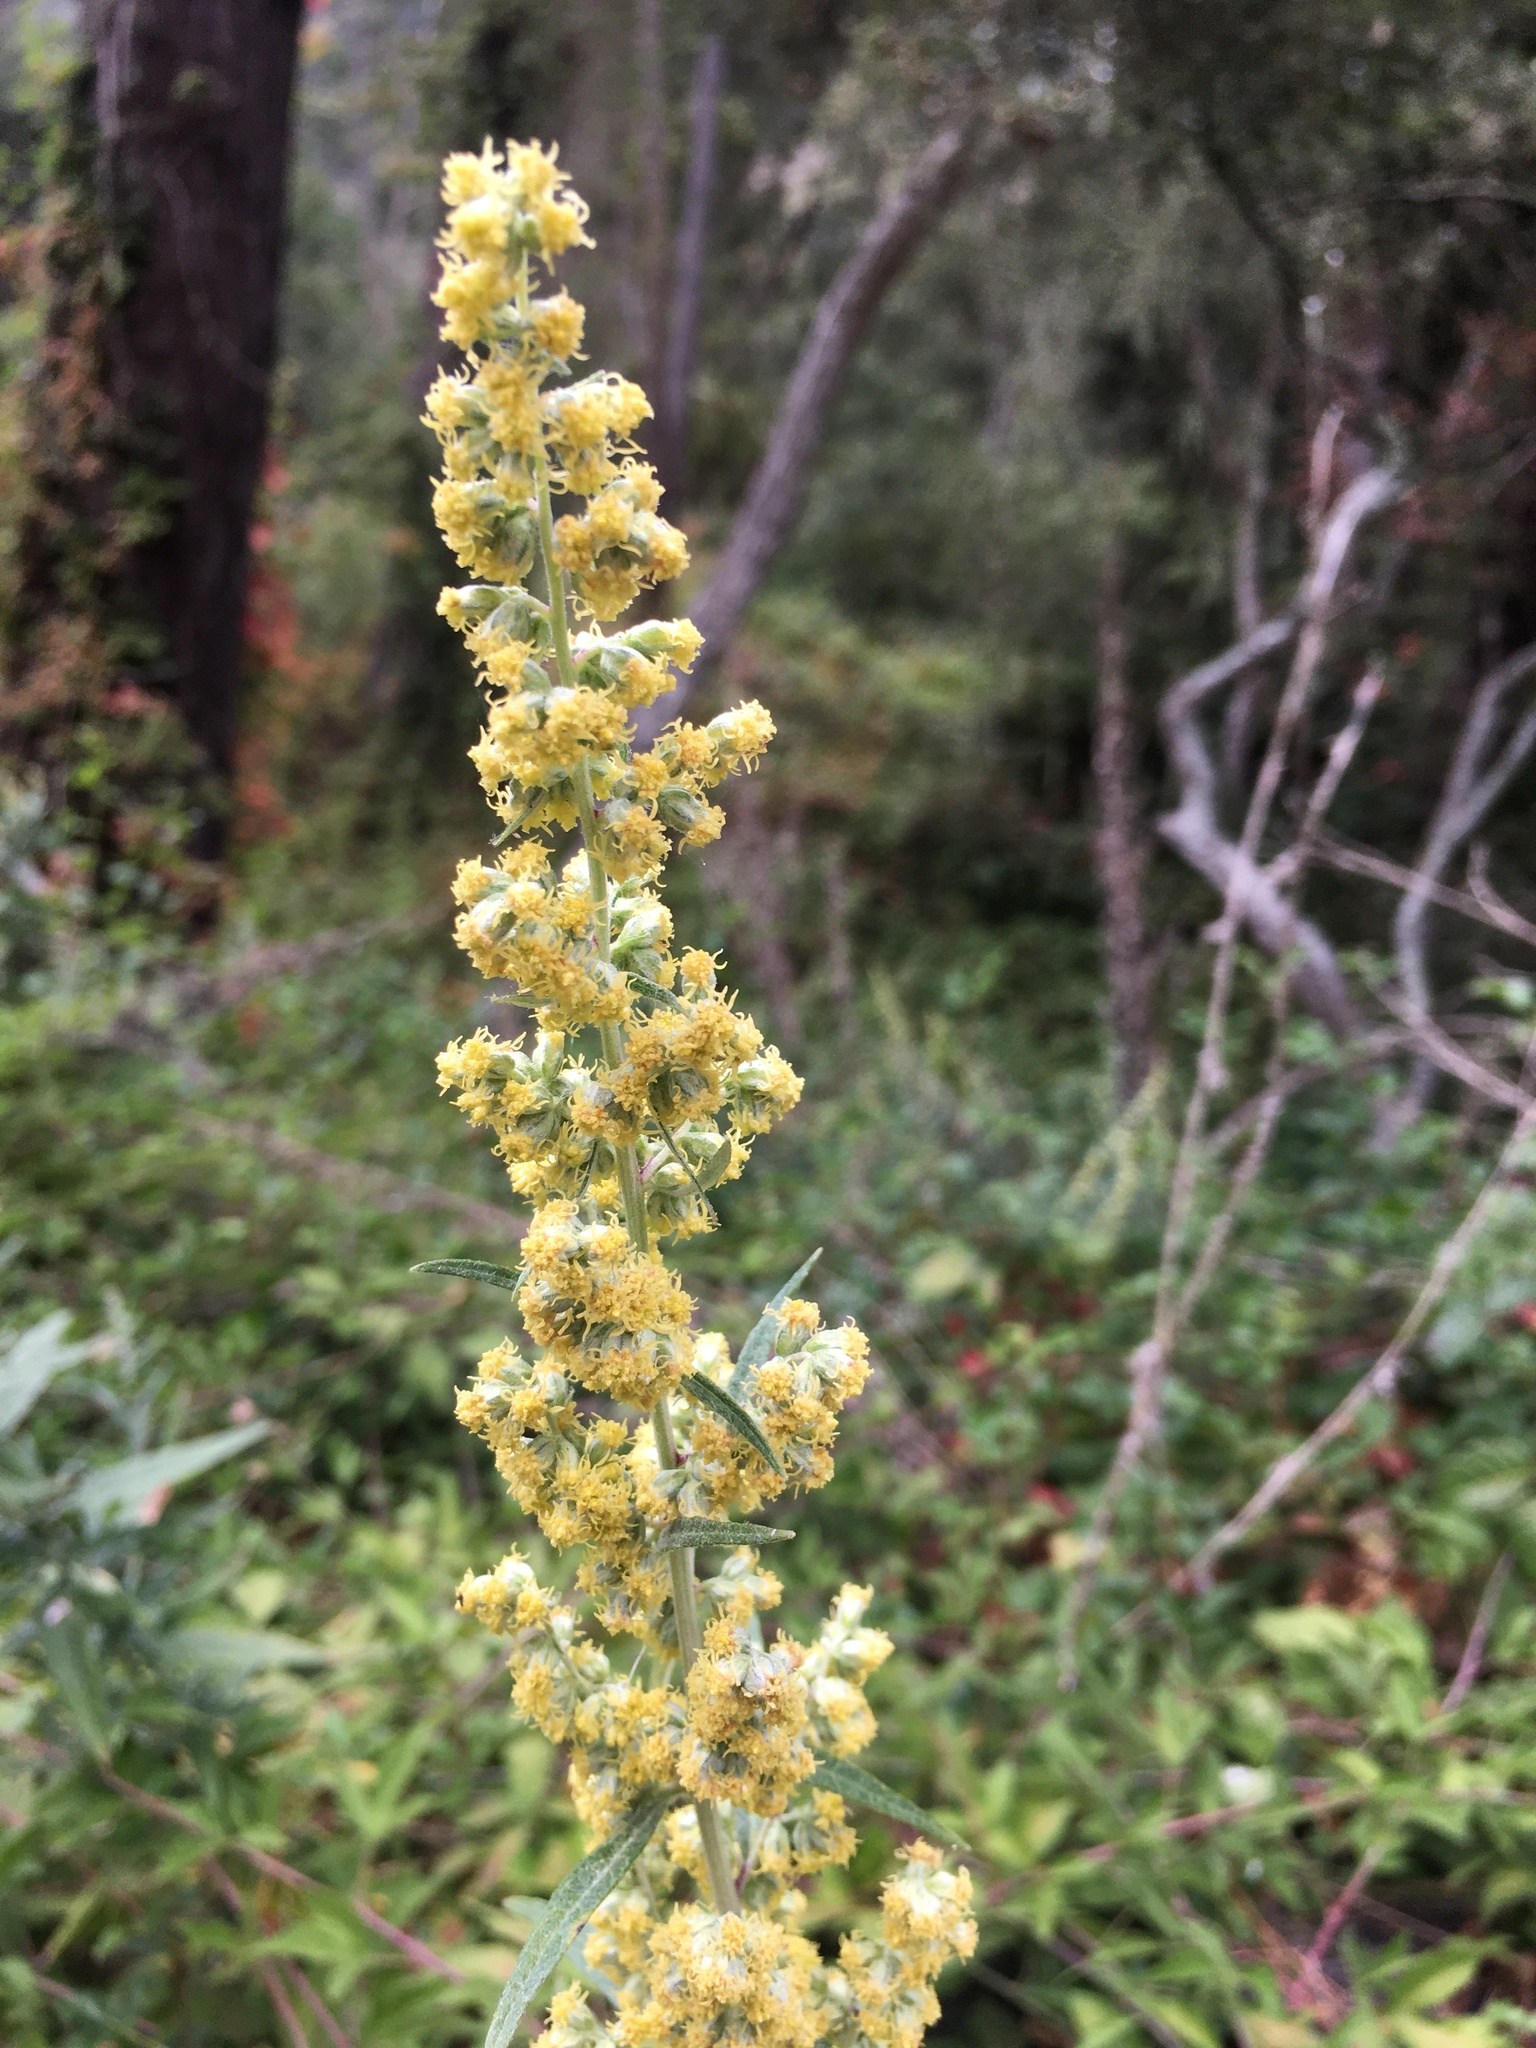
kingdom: Plantae
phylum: Tracheophyta
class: Magnoliopsida
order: Asterales
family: Asteraceae
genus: Artemisia
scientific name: Artemisia douglasiana
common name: Northwest mugwort
